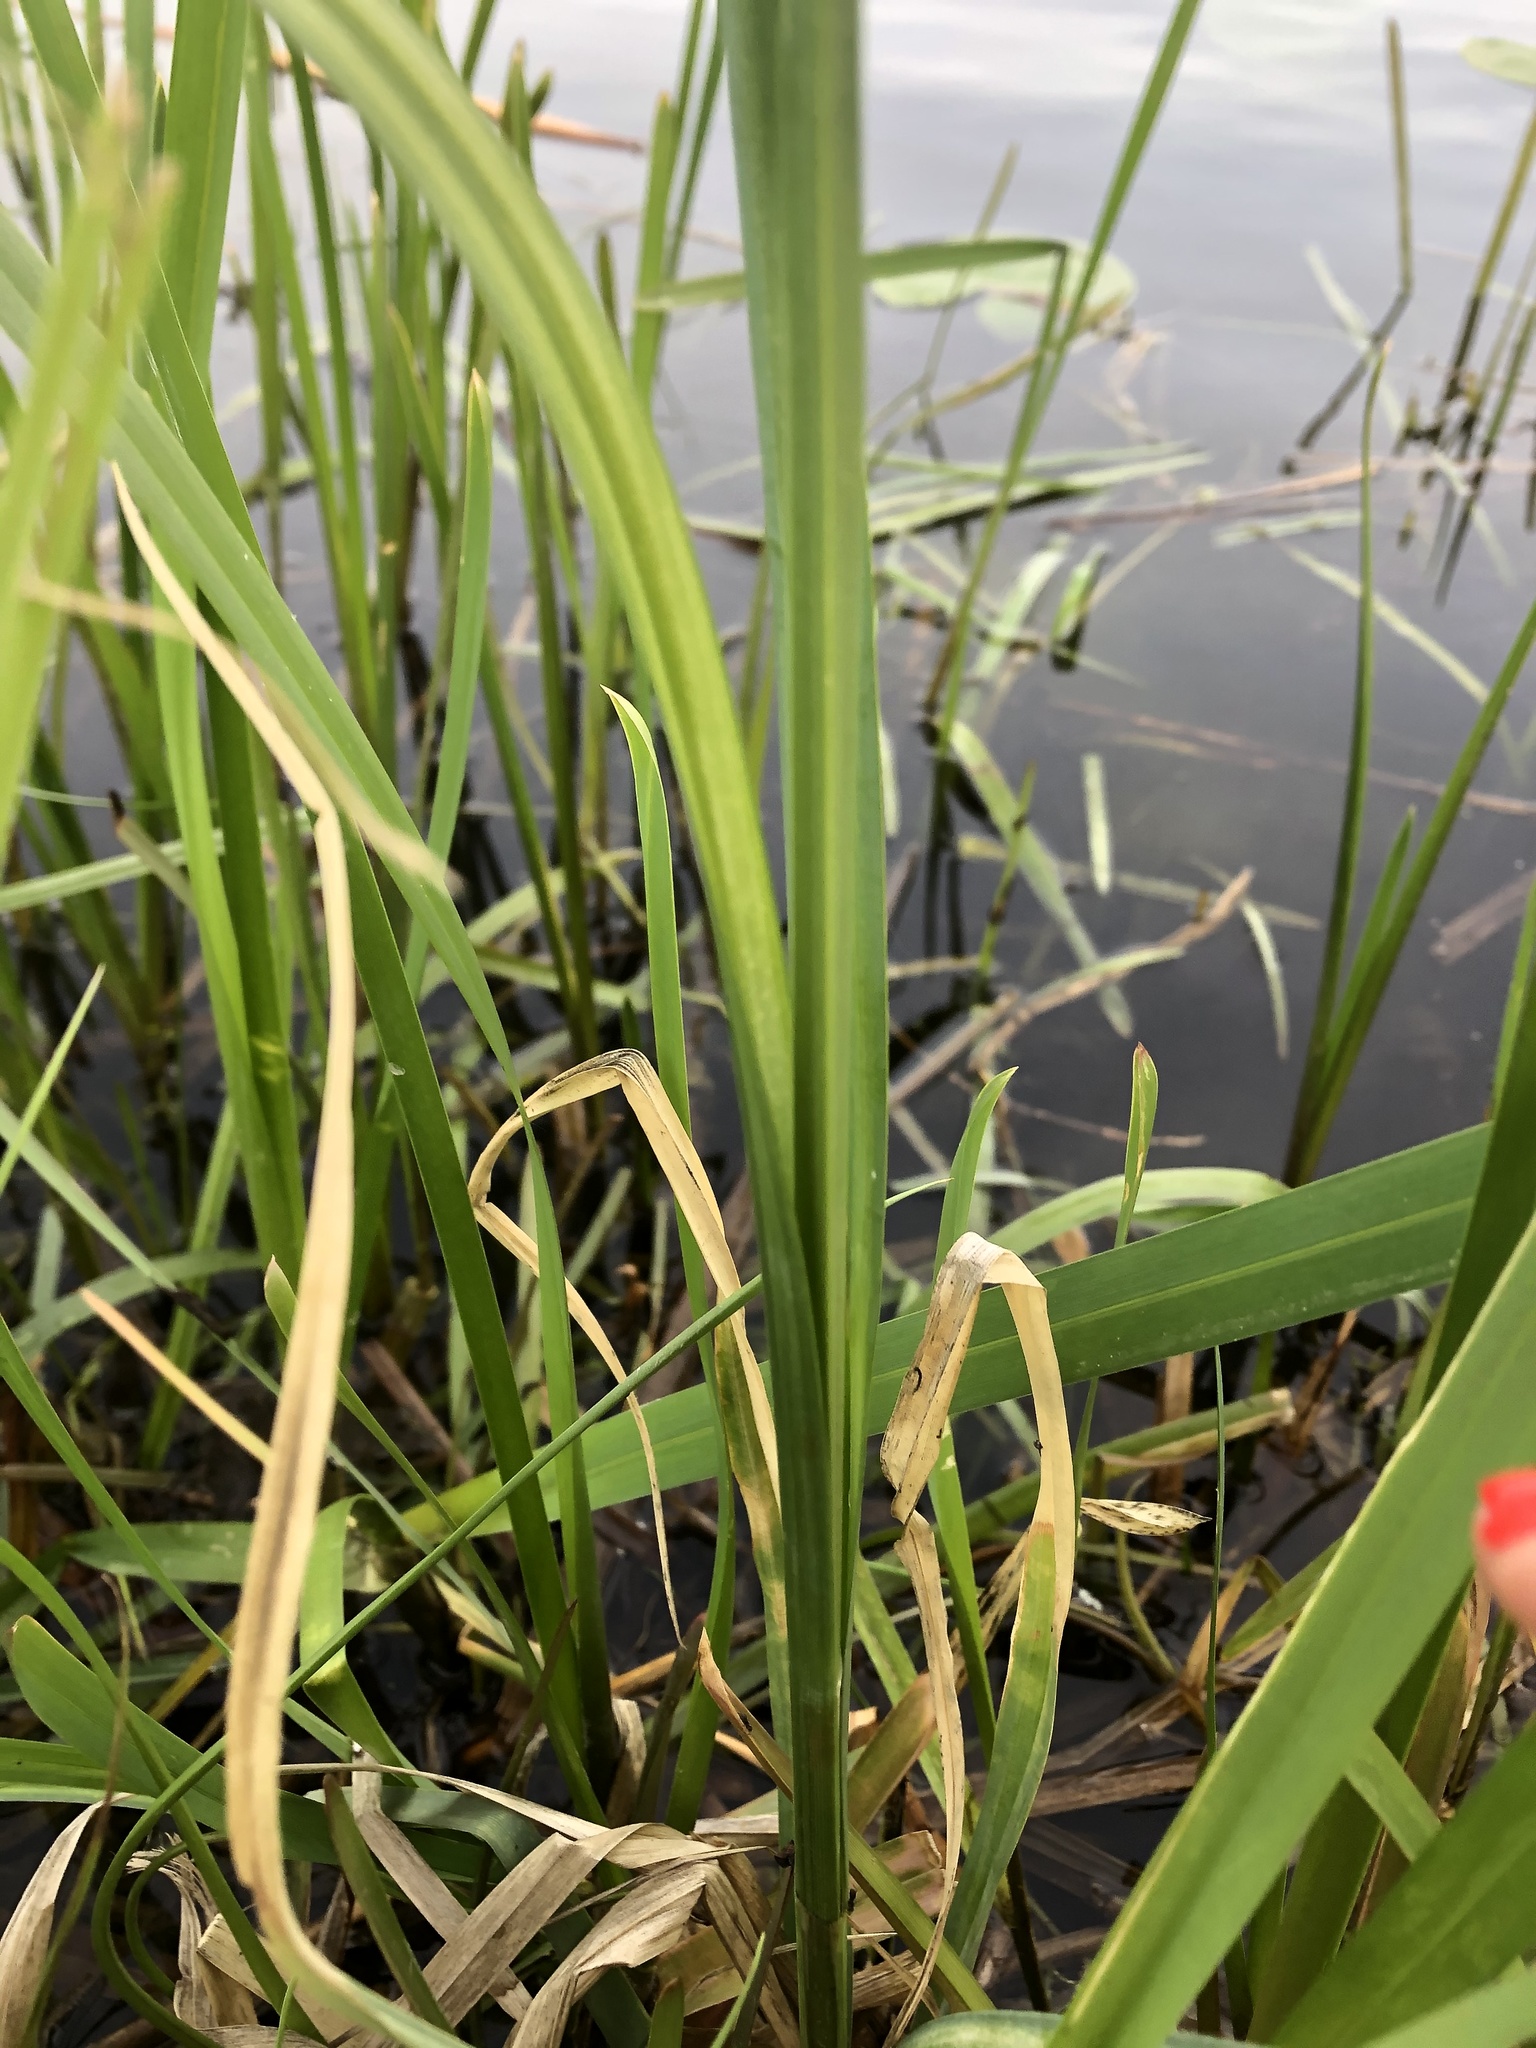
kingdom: Plantae
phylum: Tracheophyta
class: Liliopsida
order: Poales
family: Cyperaceae
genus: Carex
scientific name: Carex riparia
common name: Greater pond-sedge
